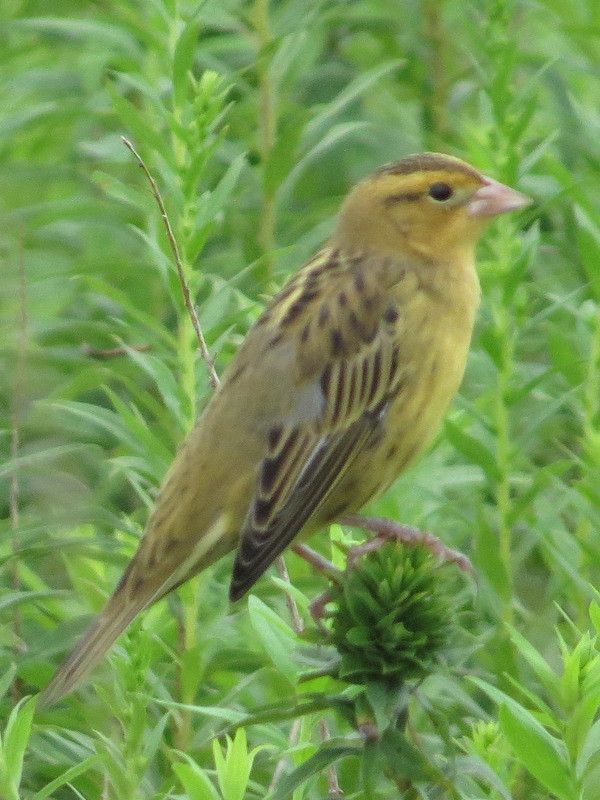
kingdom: Animalia
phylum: Chordata
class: Aves
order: Passeriformes
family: Icteridae
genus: Dolichonyx
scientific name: Dolichonyx oryzivorus
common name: Bobolink
